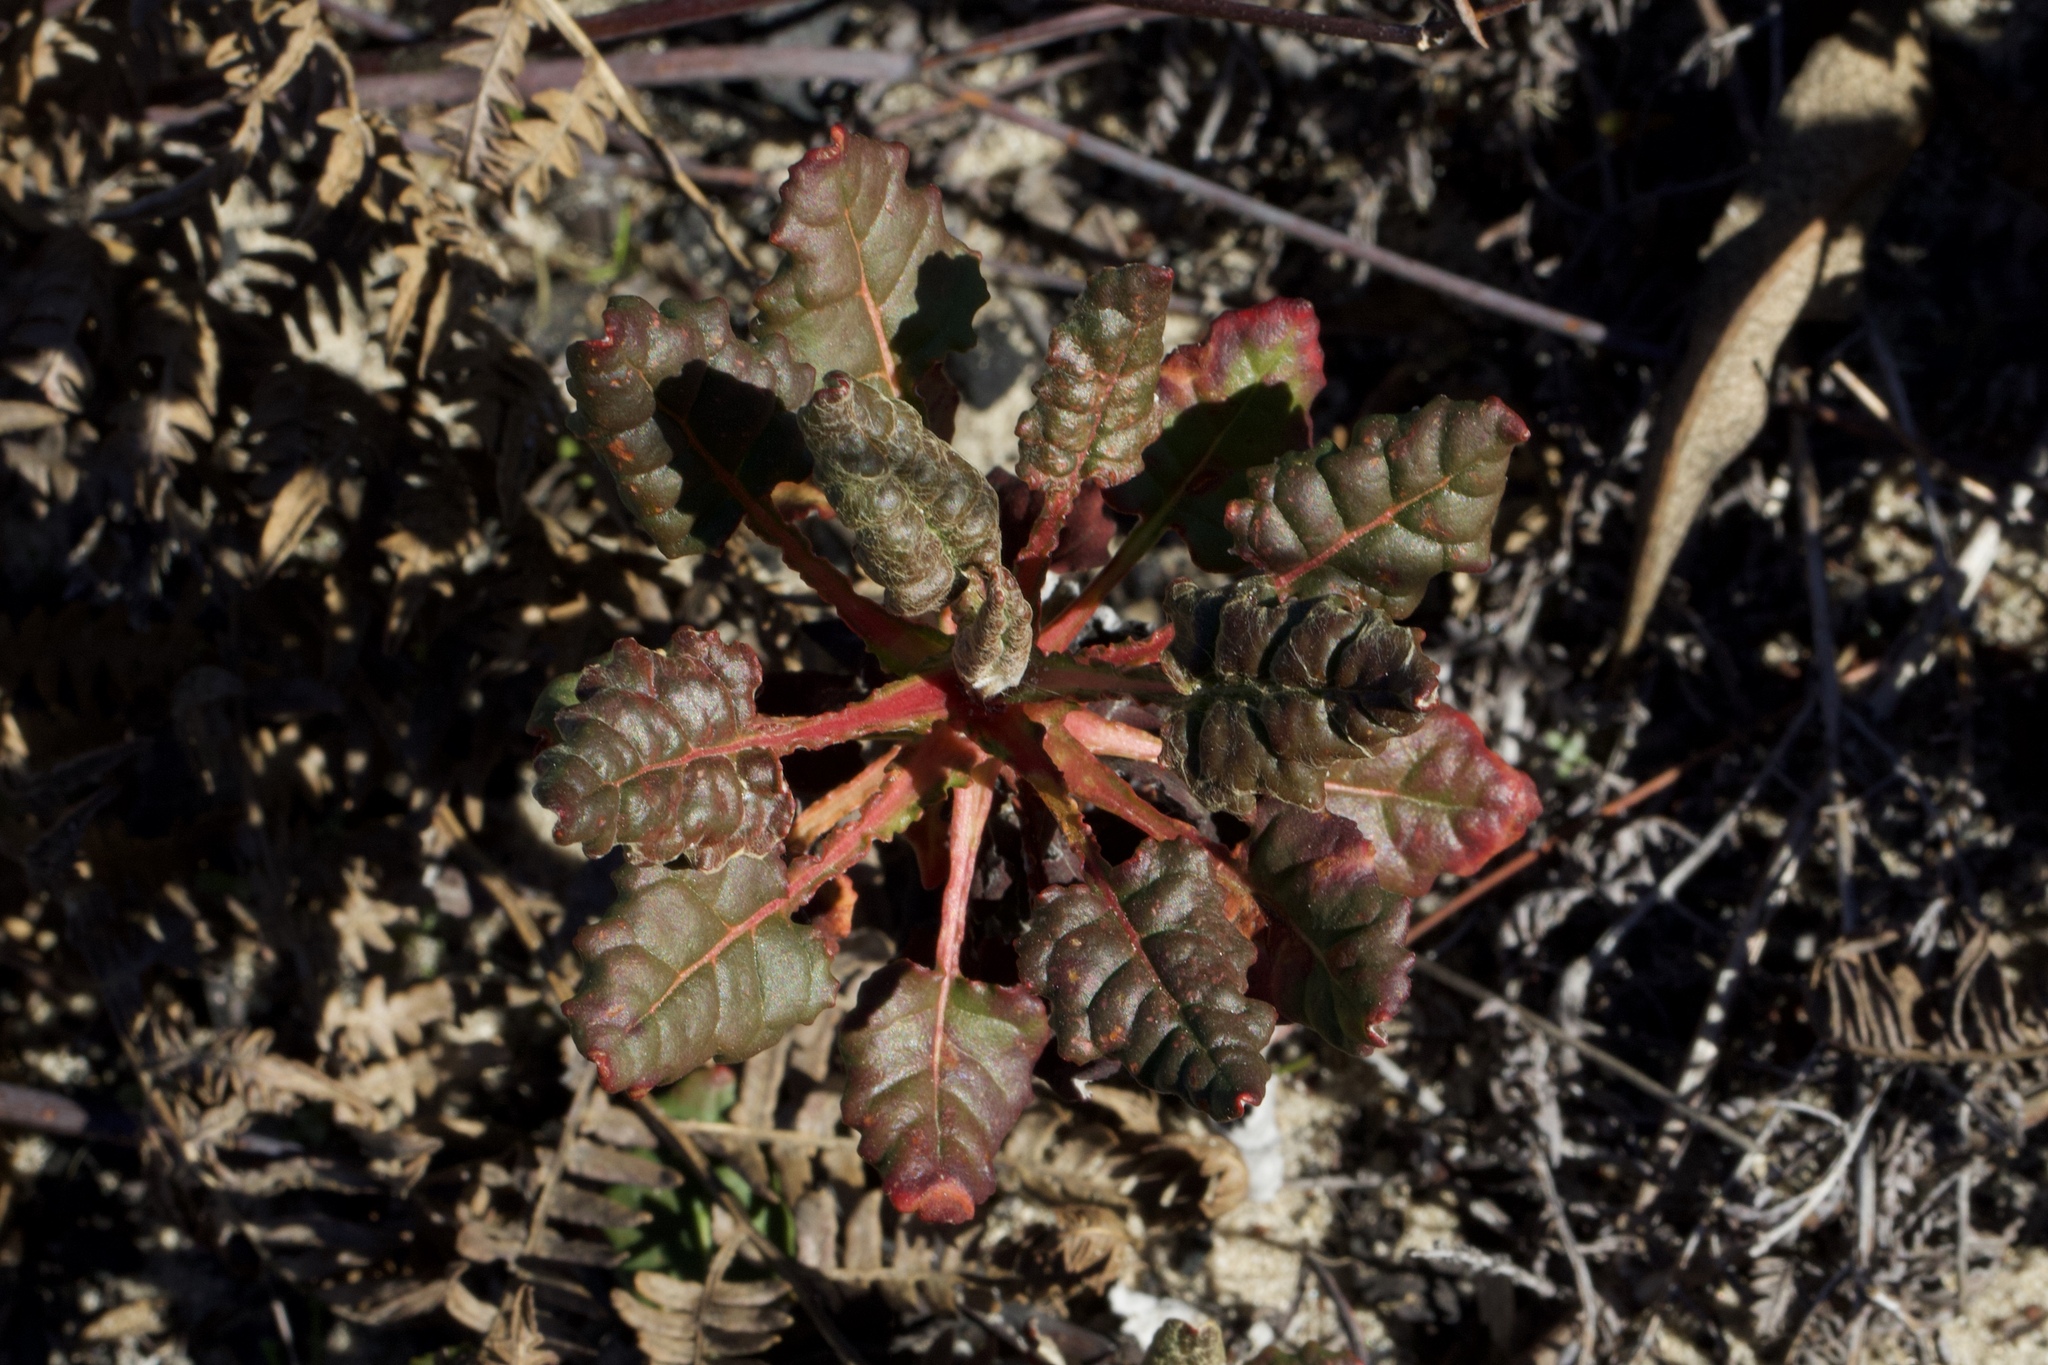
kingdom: Plantae
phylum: Tracheophyta
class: Magnoliopsida
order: Caryophyllales
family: Polygonaceae
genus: Eriogonum
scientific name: Eriogonum nudum
